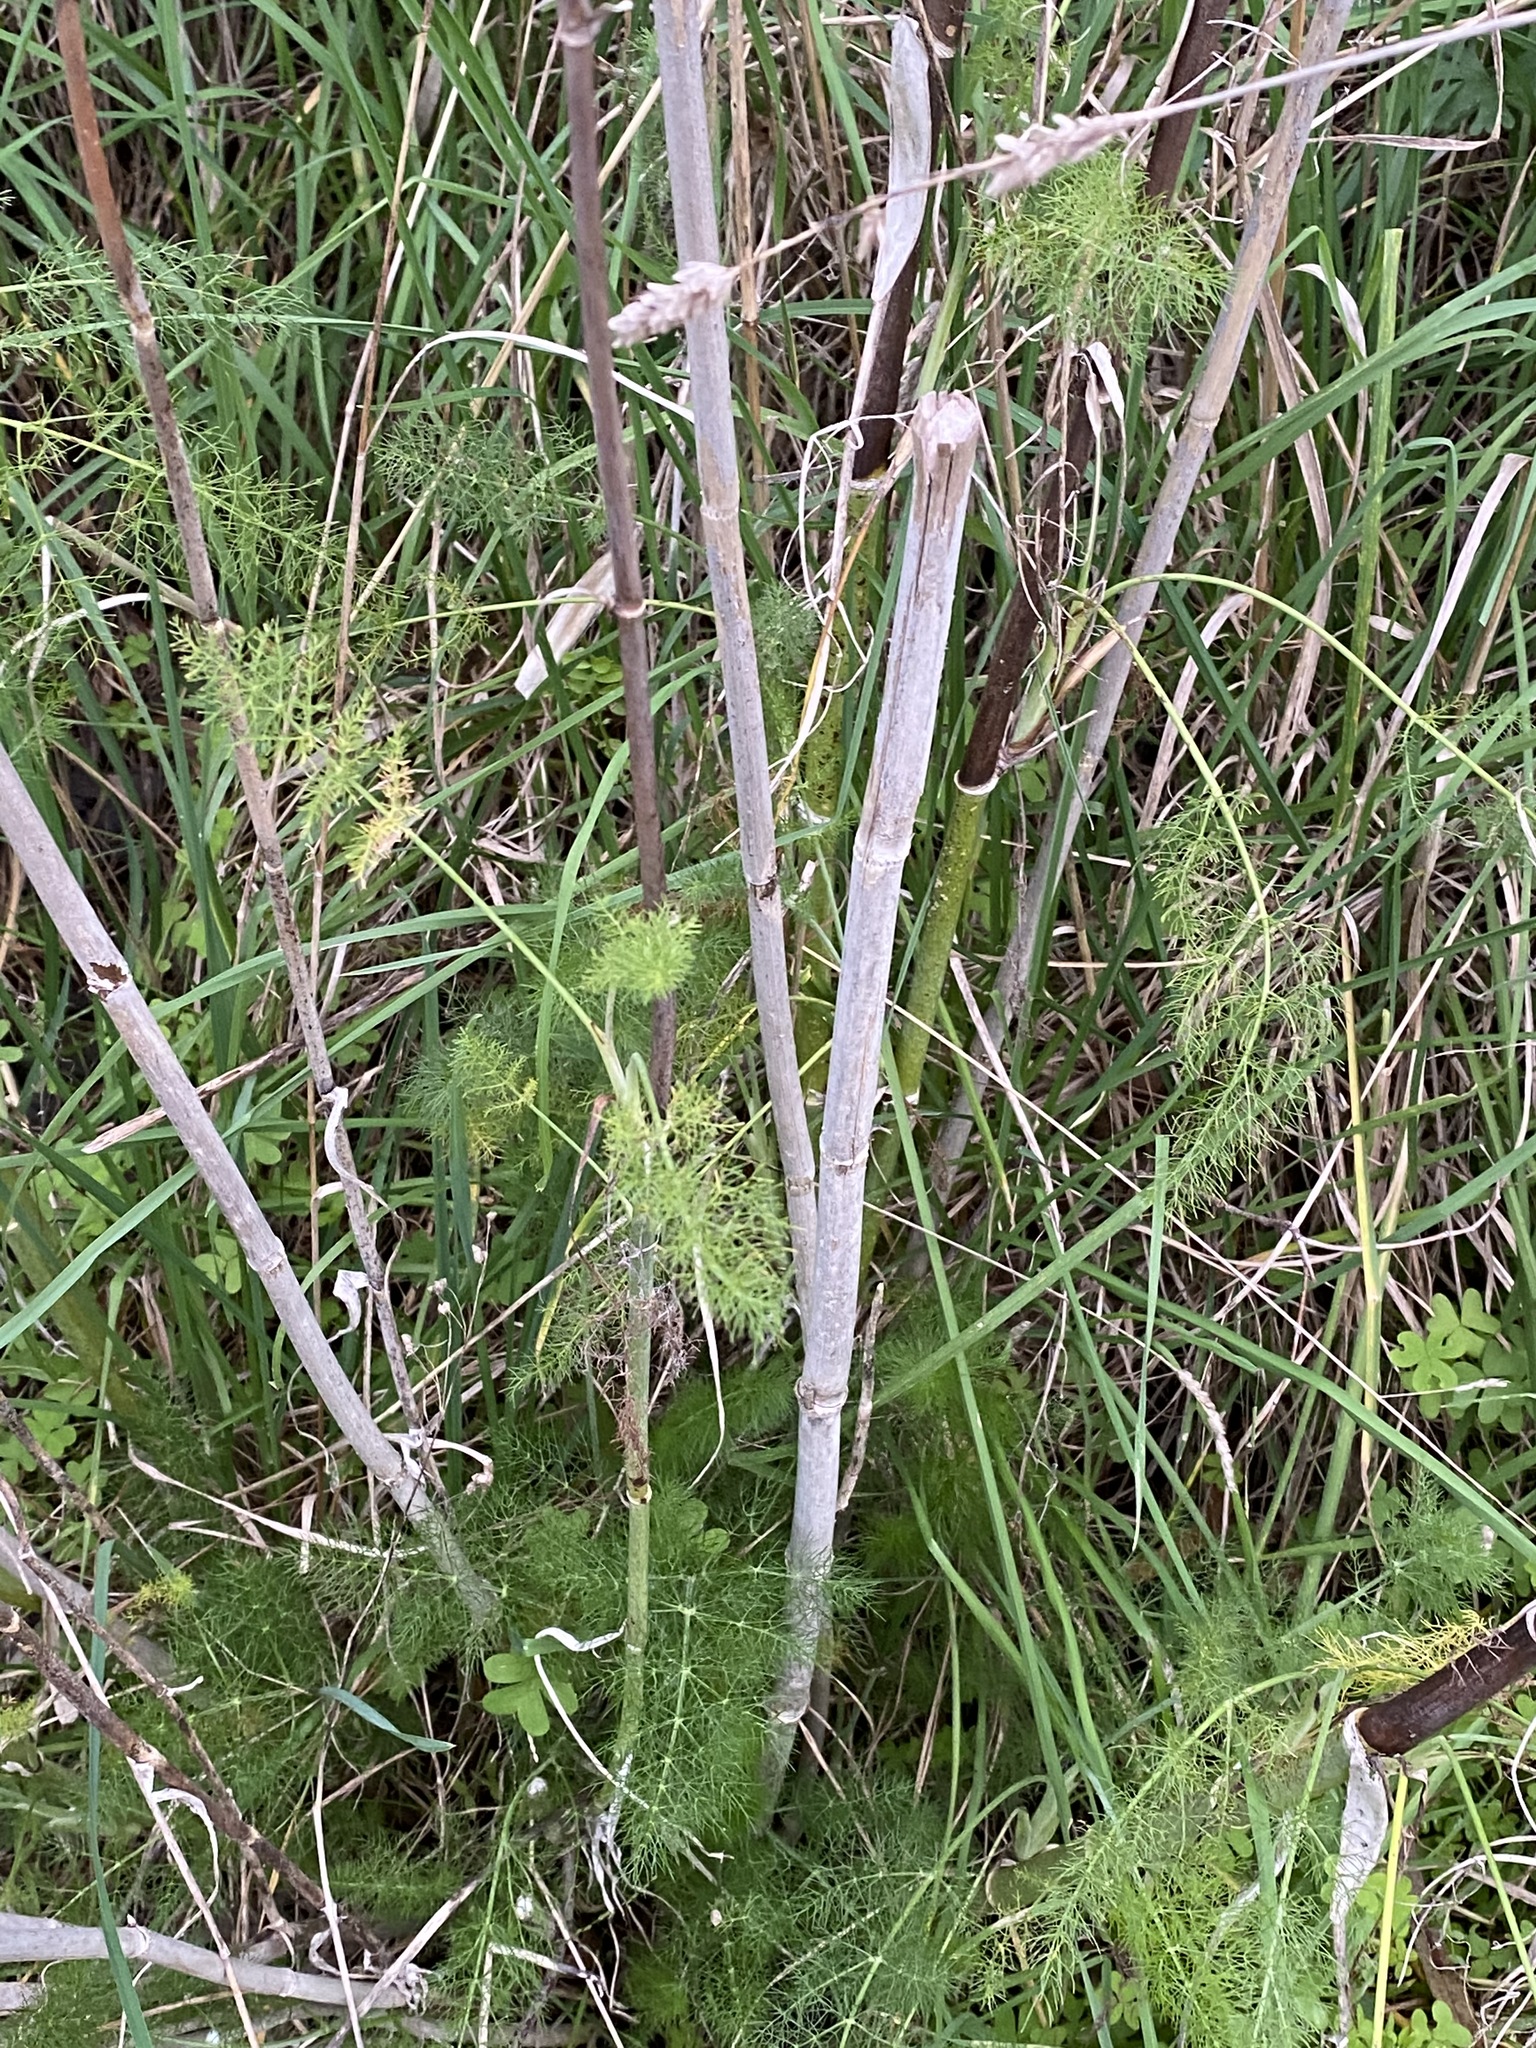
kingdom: Plantae
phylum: Tracheophyta
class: Magnoliopsida
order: Apiales
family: Apiaceae
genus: Foeniculum
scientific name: Foeniculum vulgare
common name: Fennel
